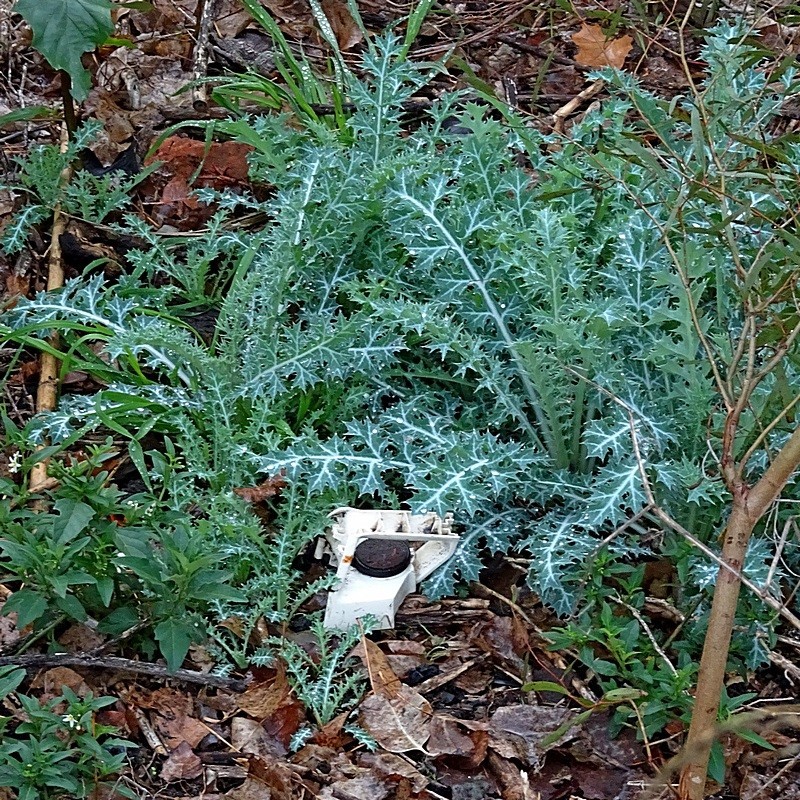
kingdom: Plantae
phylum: Tracheophyta
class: Magnoliopsida
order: Ranunculales
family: Papaveraceae
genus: Argemone
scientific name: Argemone ochroleuca
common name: White-flower mexican-poppy
